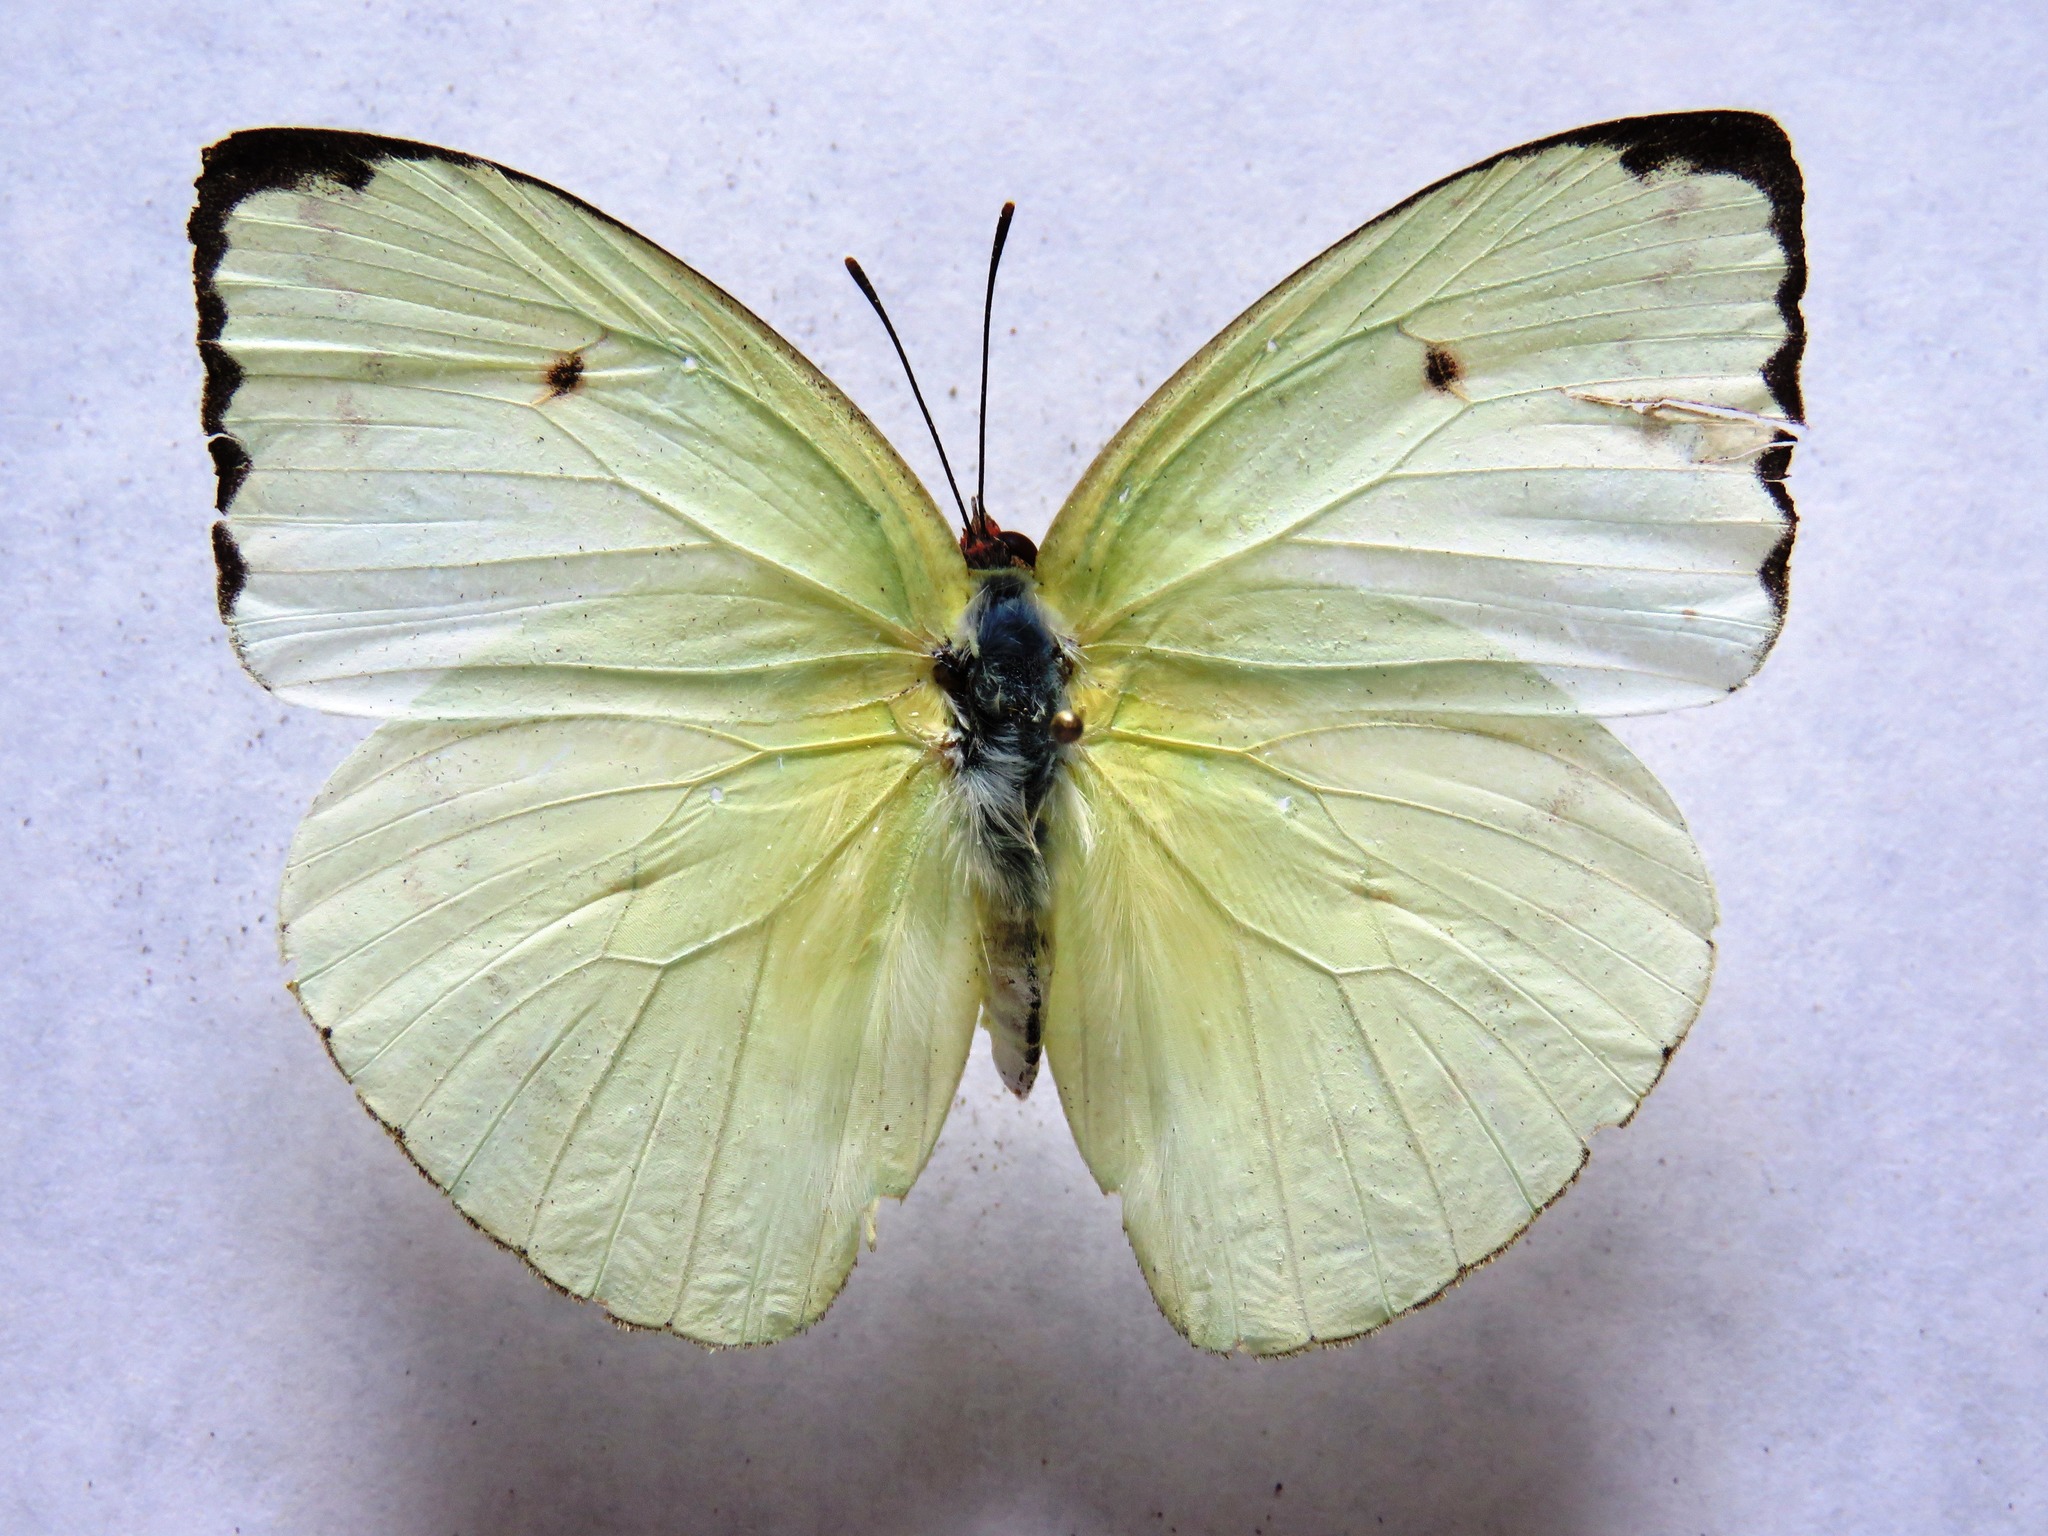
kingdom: Animalia
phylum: Arthropoda
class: Insecta
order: Lepidoptera
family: Pieridae
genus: Aphrissa
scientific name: Aphrissa statira
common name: Statira sulphur
